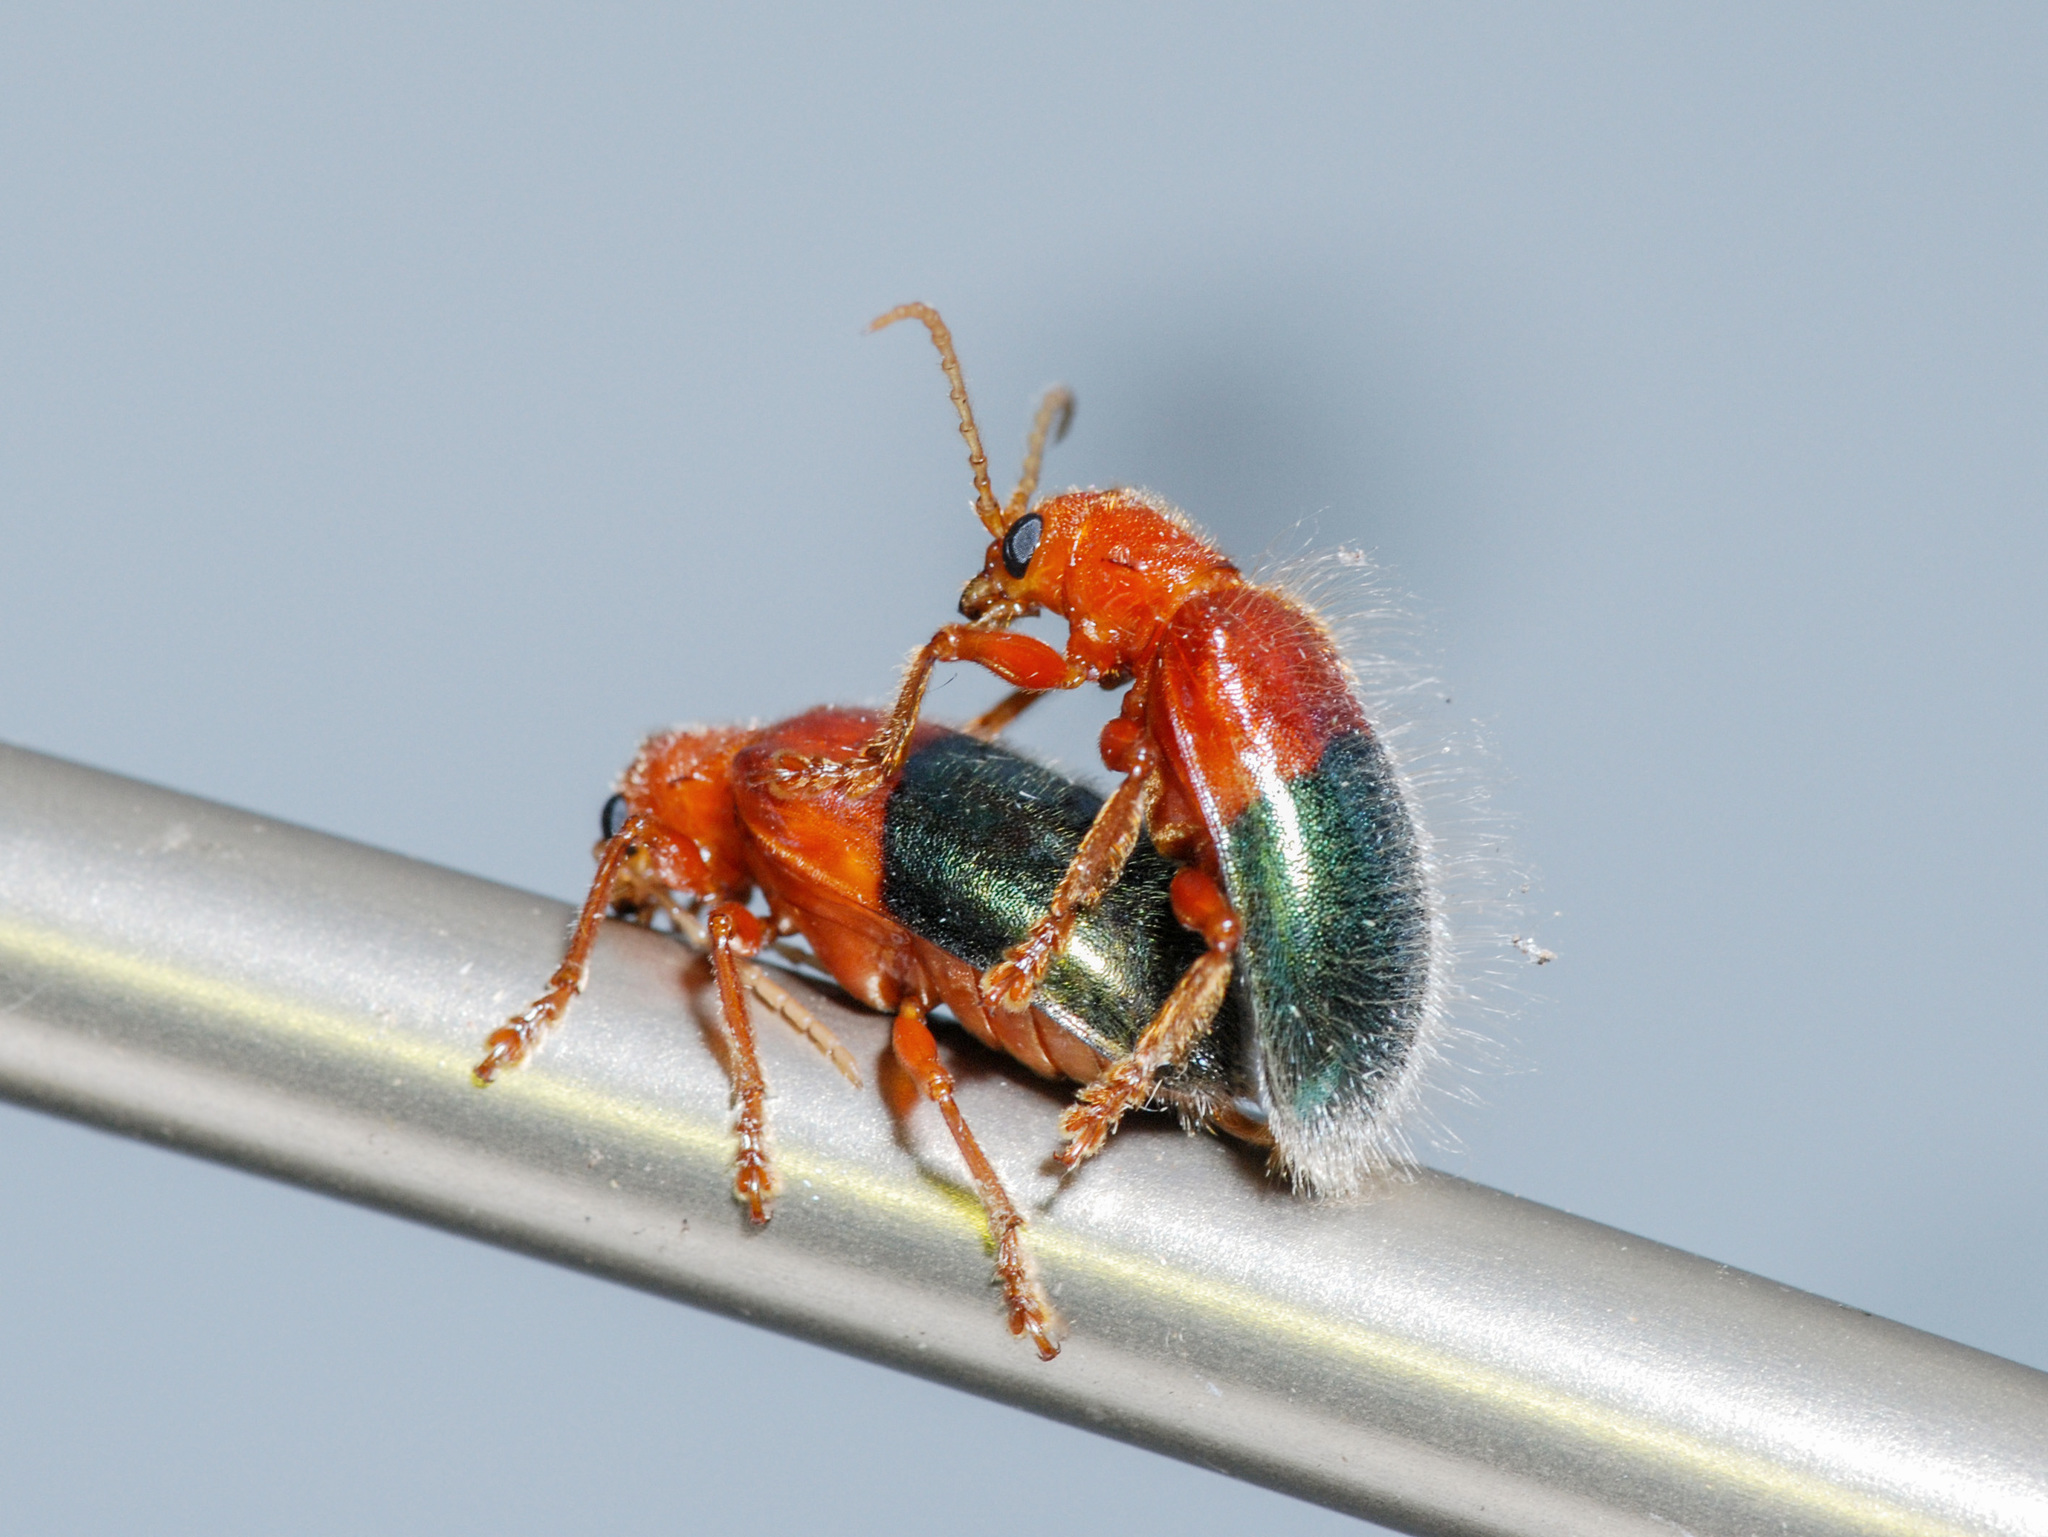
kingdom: Animalia
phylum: Arthropoda
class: Insecta
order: Coleoptera
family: Chrysomelidae
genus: Goniopleura
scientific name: Goniopleura auricoma
